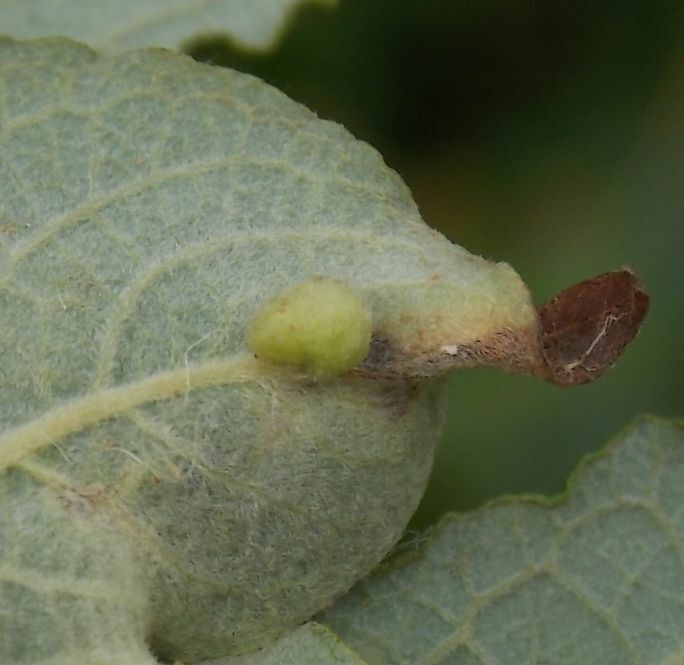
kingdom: Animalia
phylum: Arthropoda
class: Insecta
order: Hymenoptera
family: Tenthredinidae
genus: Pontania
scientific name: Pontania pedunculi
